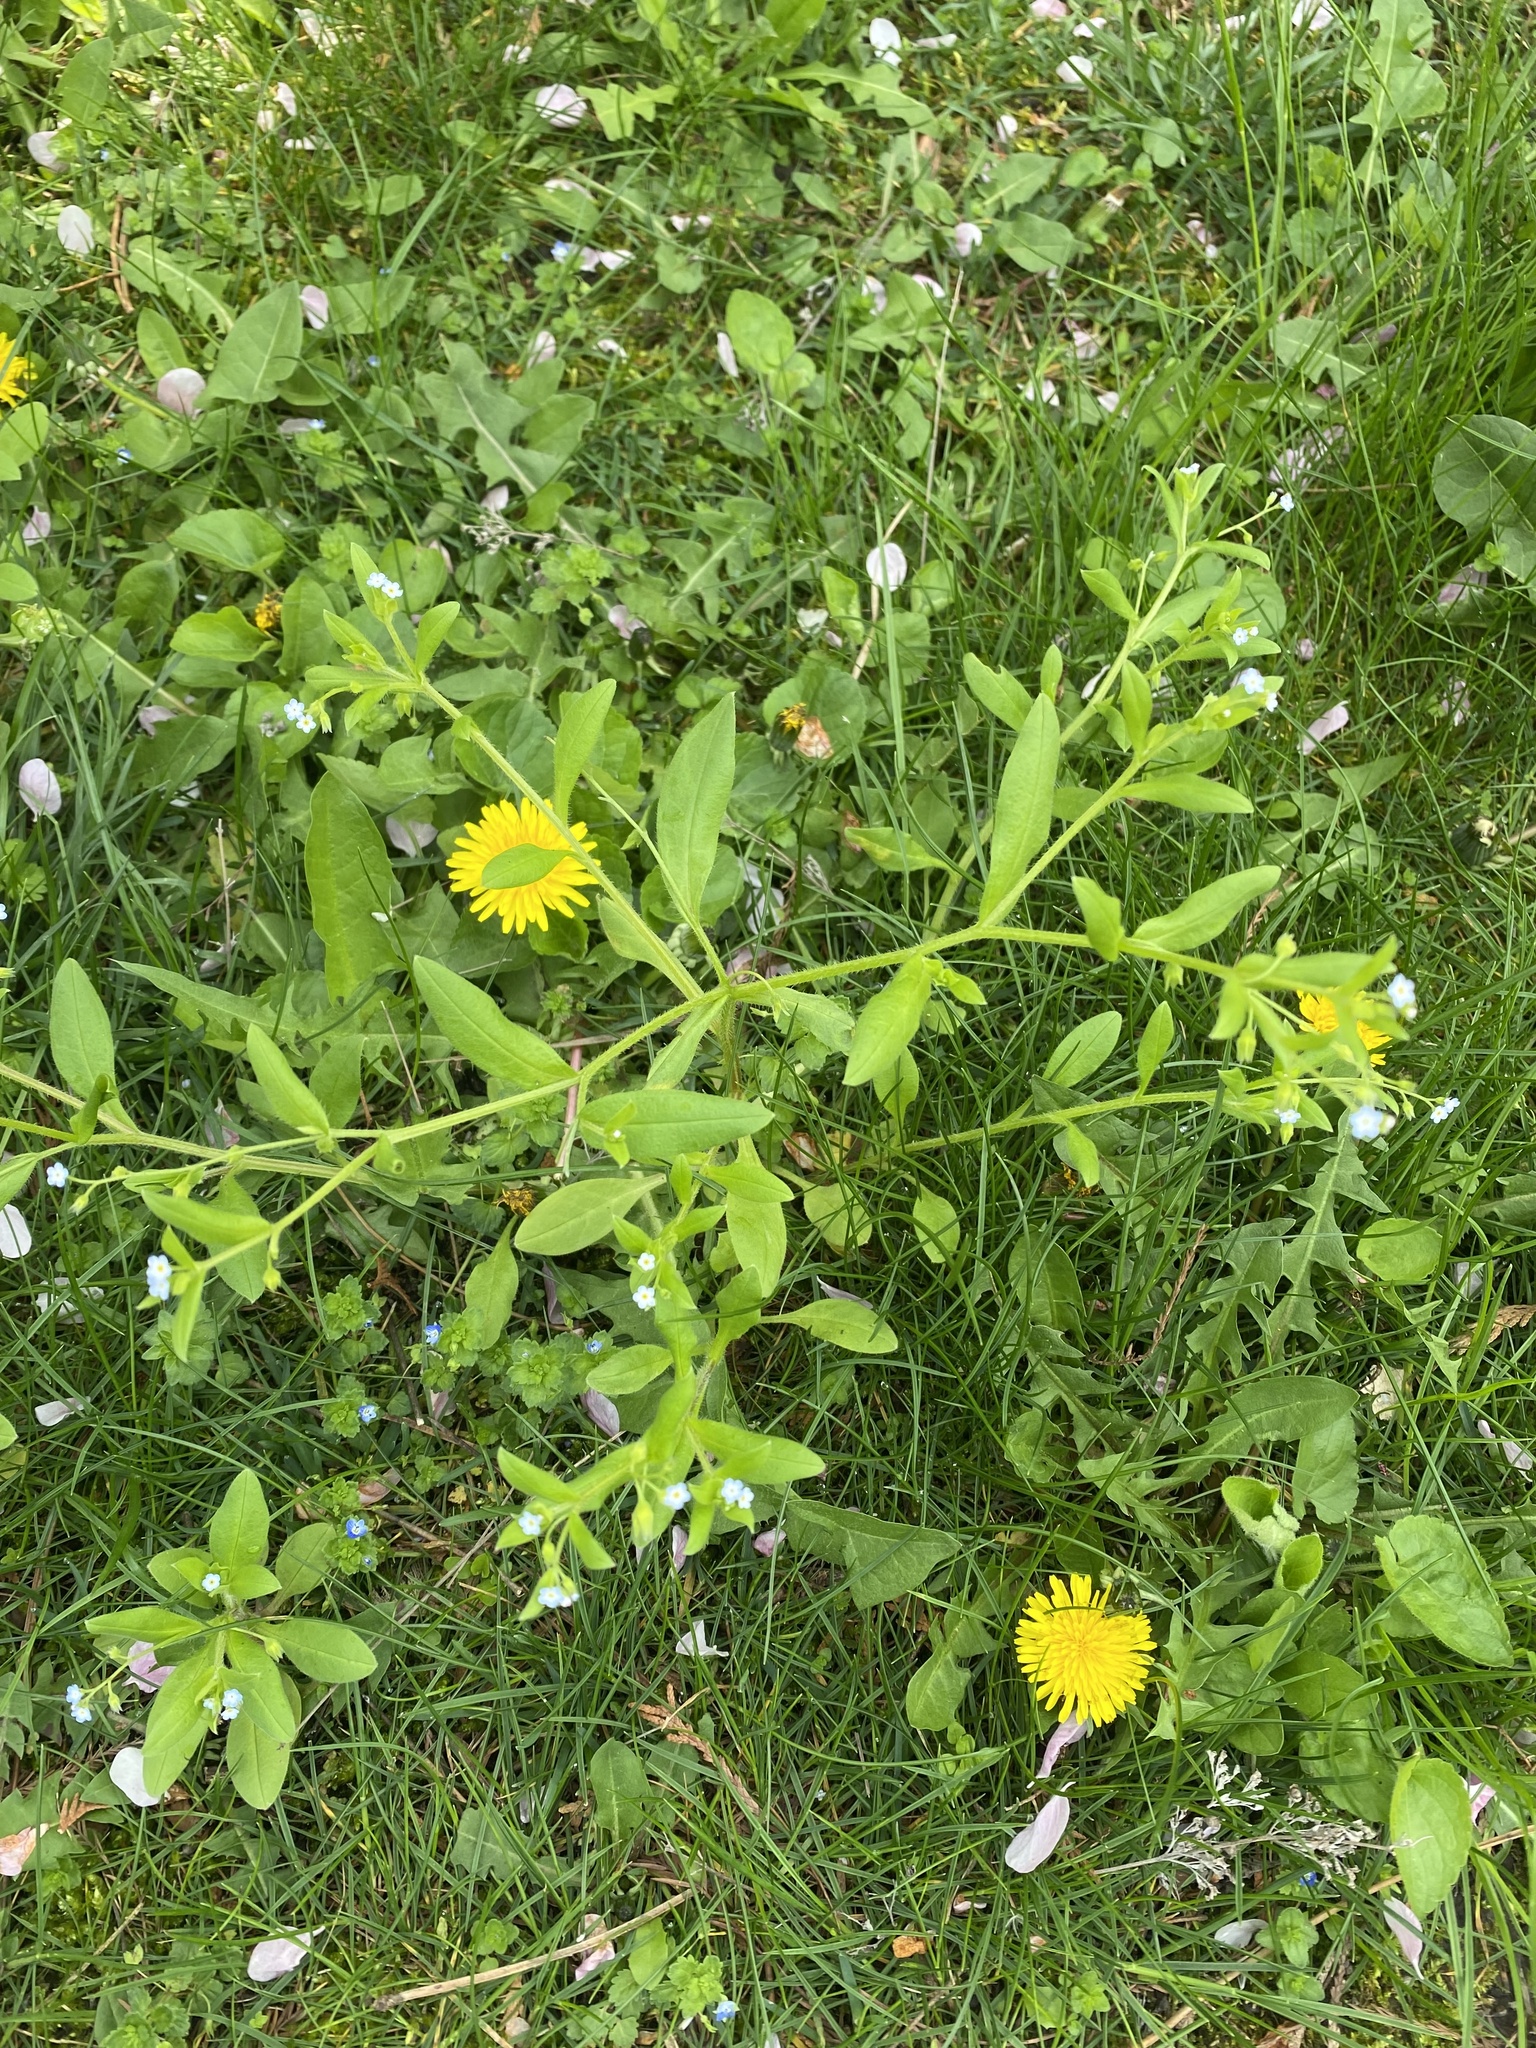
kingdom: Plantae
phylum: Tracheophyta
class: Magnoliopsida
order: Boraginales
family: Boraginaceae
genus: Myosotis
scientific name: Myosotis sparsiflora
